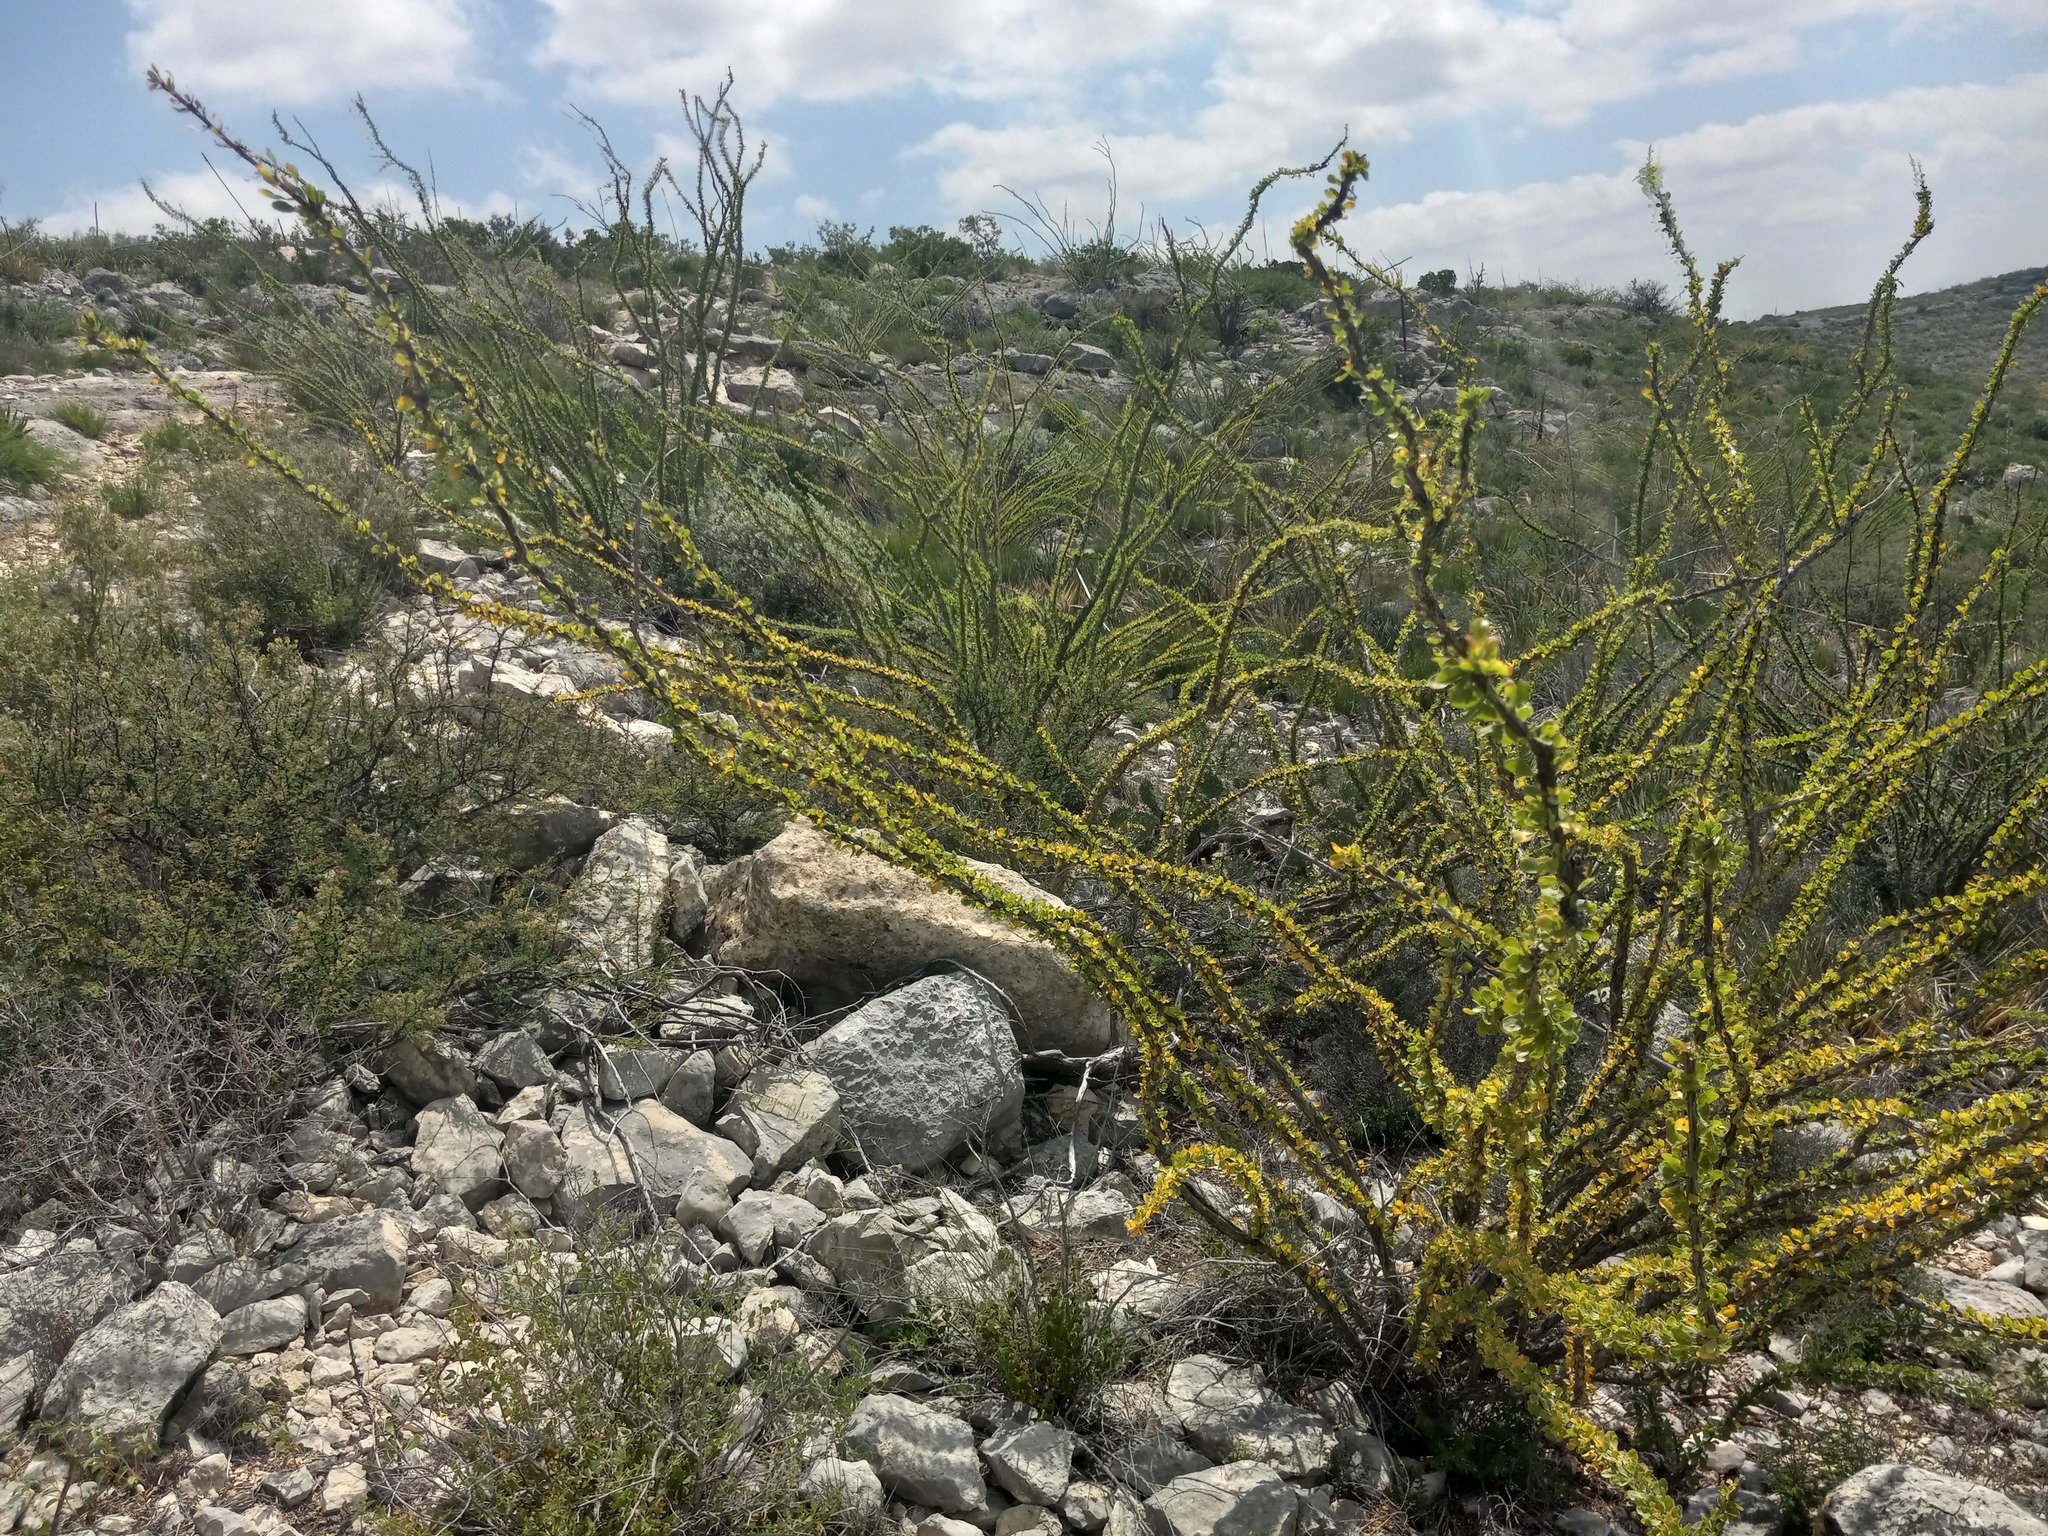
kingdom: Plantae
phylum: Tracheophyta
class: Magnoliopsida
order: Ericales
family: Fouquieriaceae
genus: Fouquieria
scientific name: Fouquieria splendens
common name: Vine-cactus
